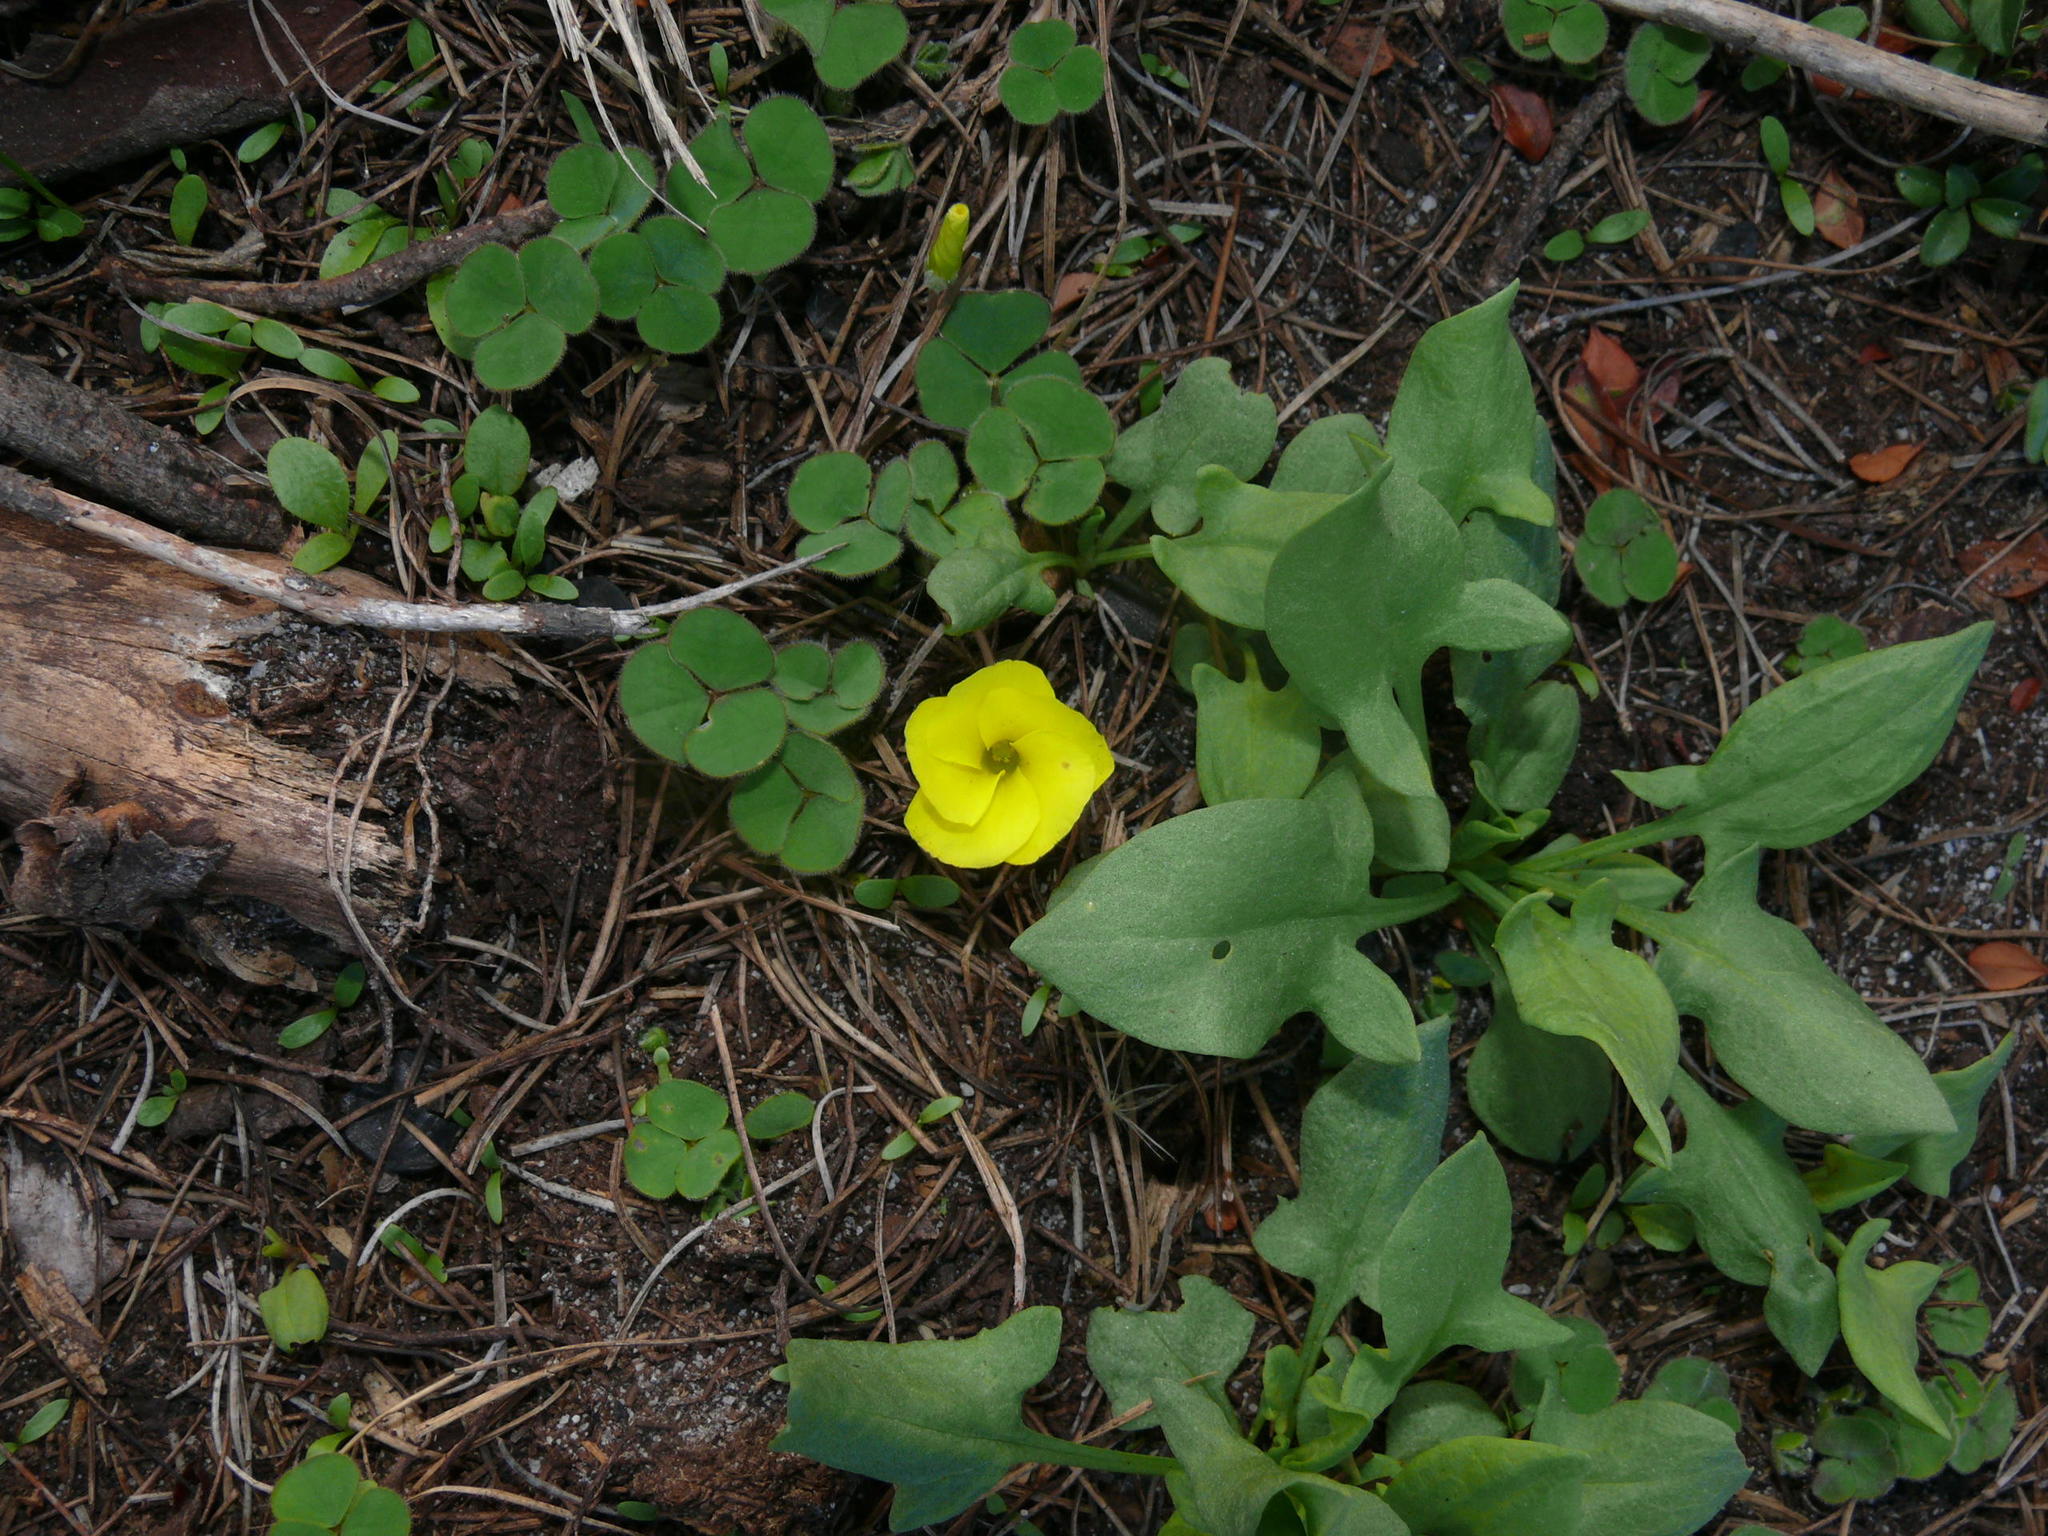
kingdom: Plantae
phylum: Tracheophyta
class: Magnoliopsida
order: Oxalidales
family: Oxalidaceae
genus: Oxalis
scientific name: Oxalis luteola
